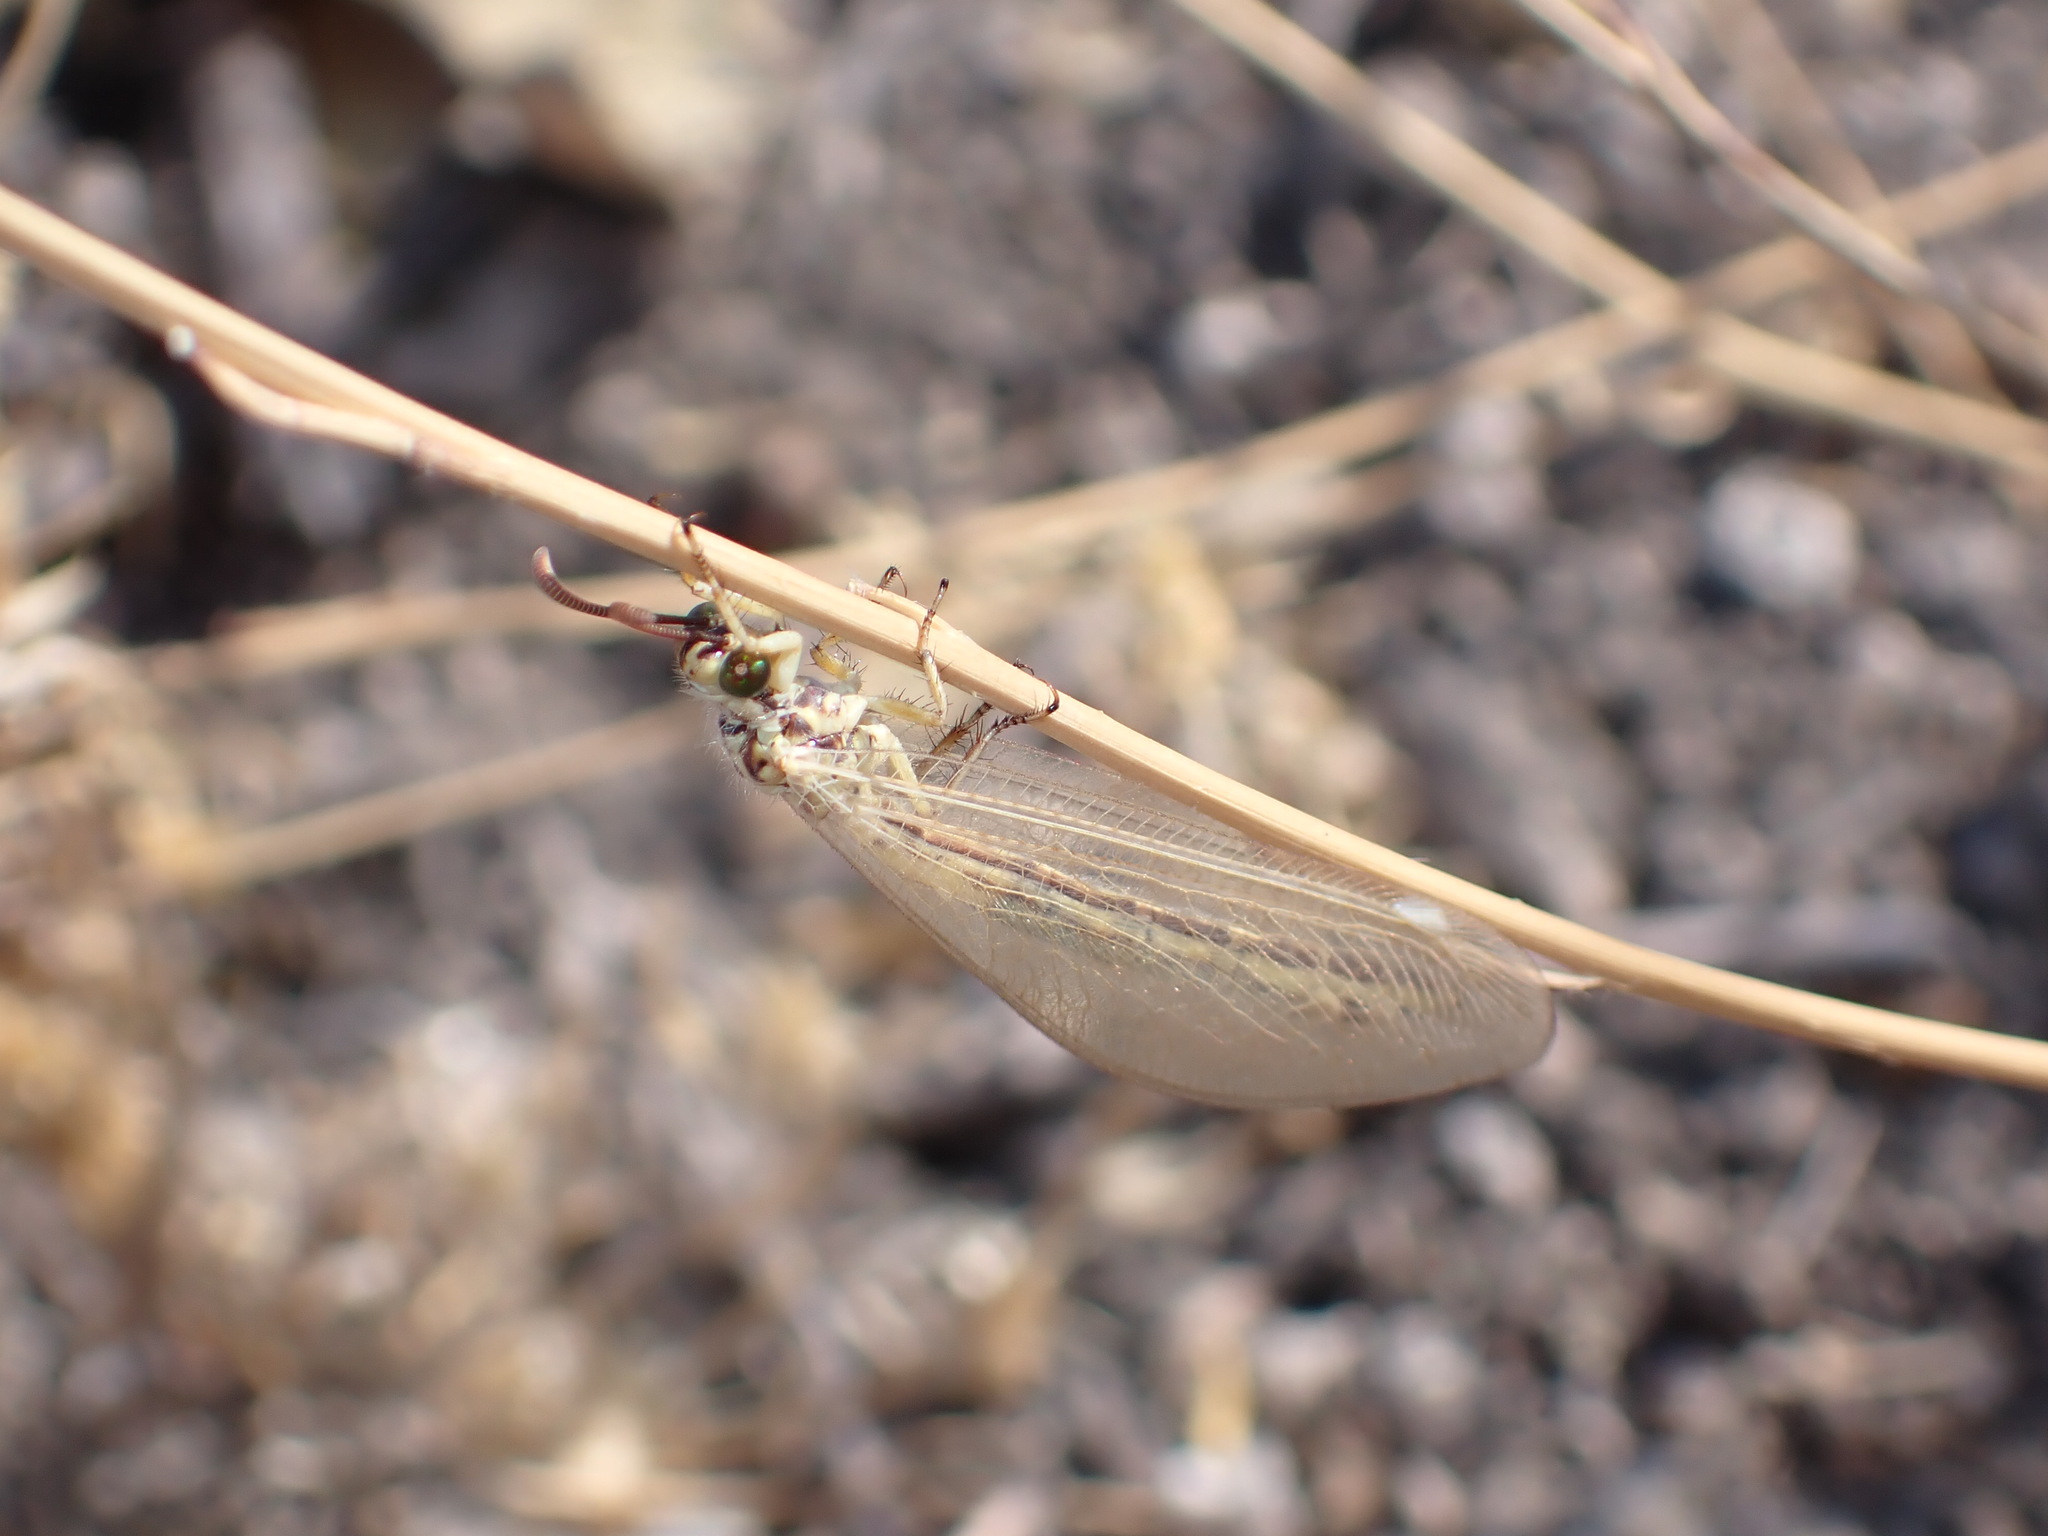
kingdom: Animalia
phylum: Arthropoda
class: Insecta
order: Neuroptera
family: Myrmeleontidae
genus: Myrmecaelurus
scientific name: Myrmecaelurus trigrammus
